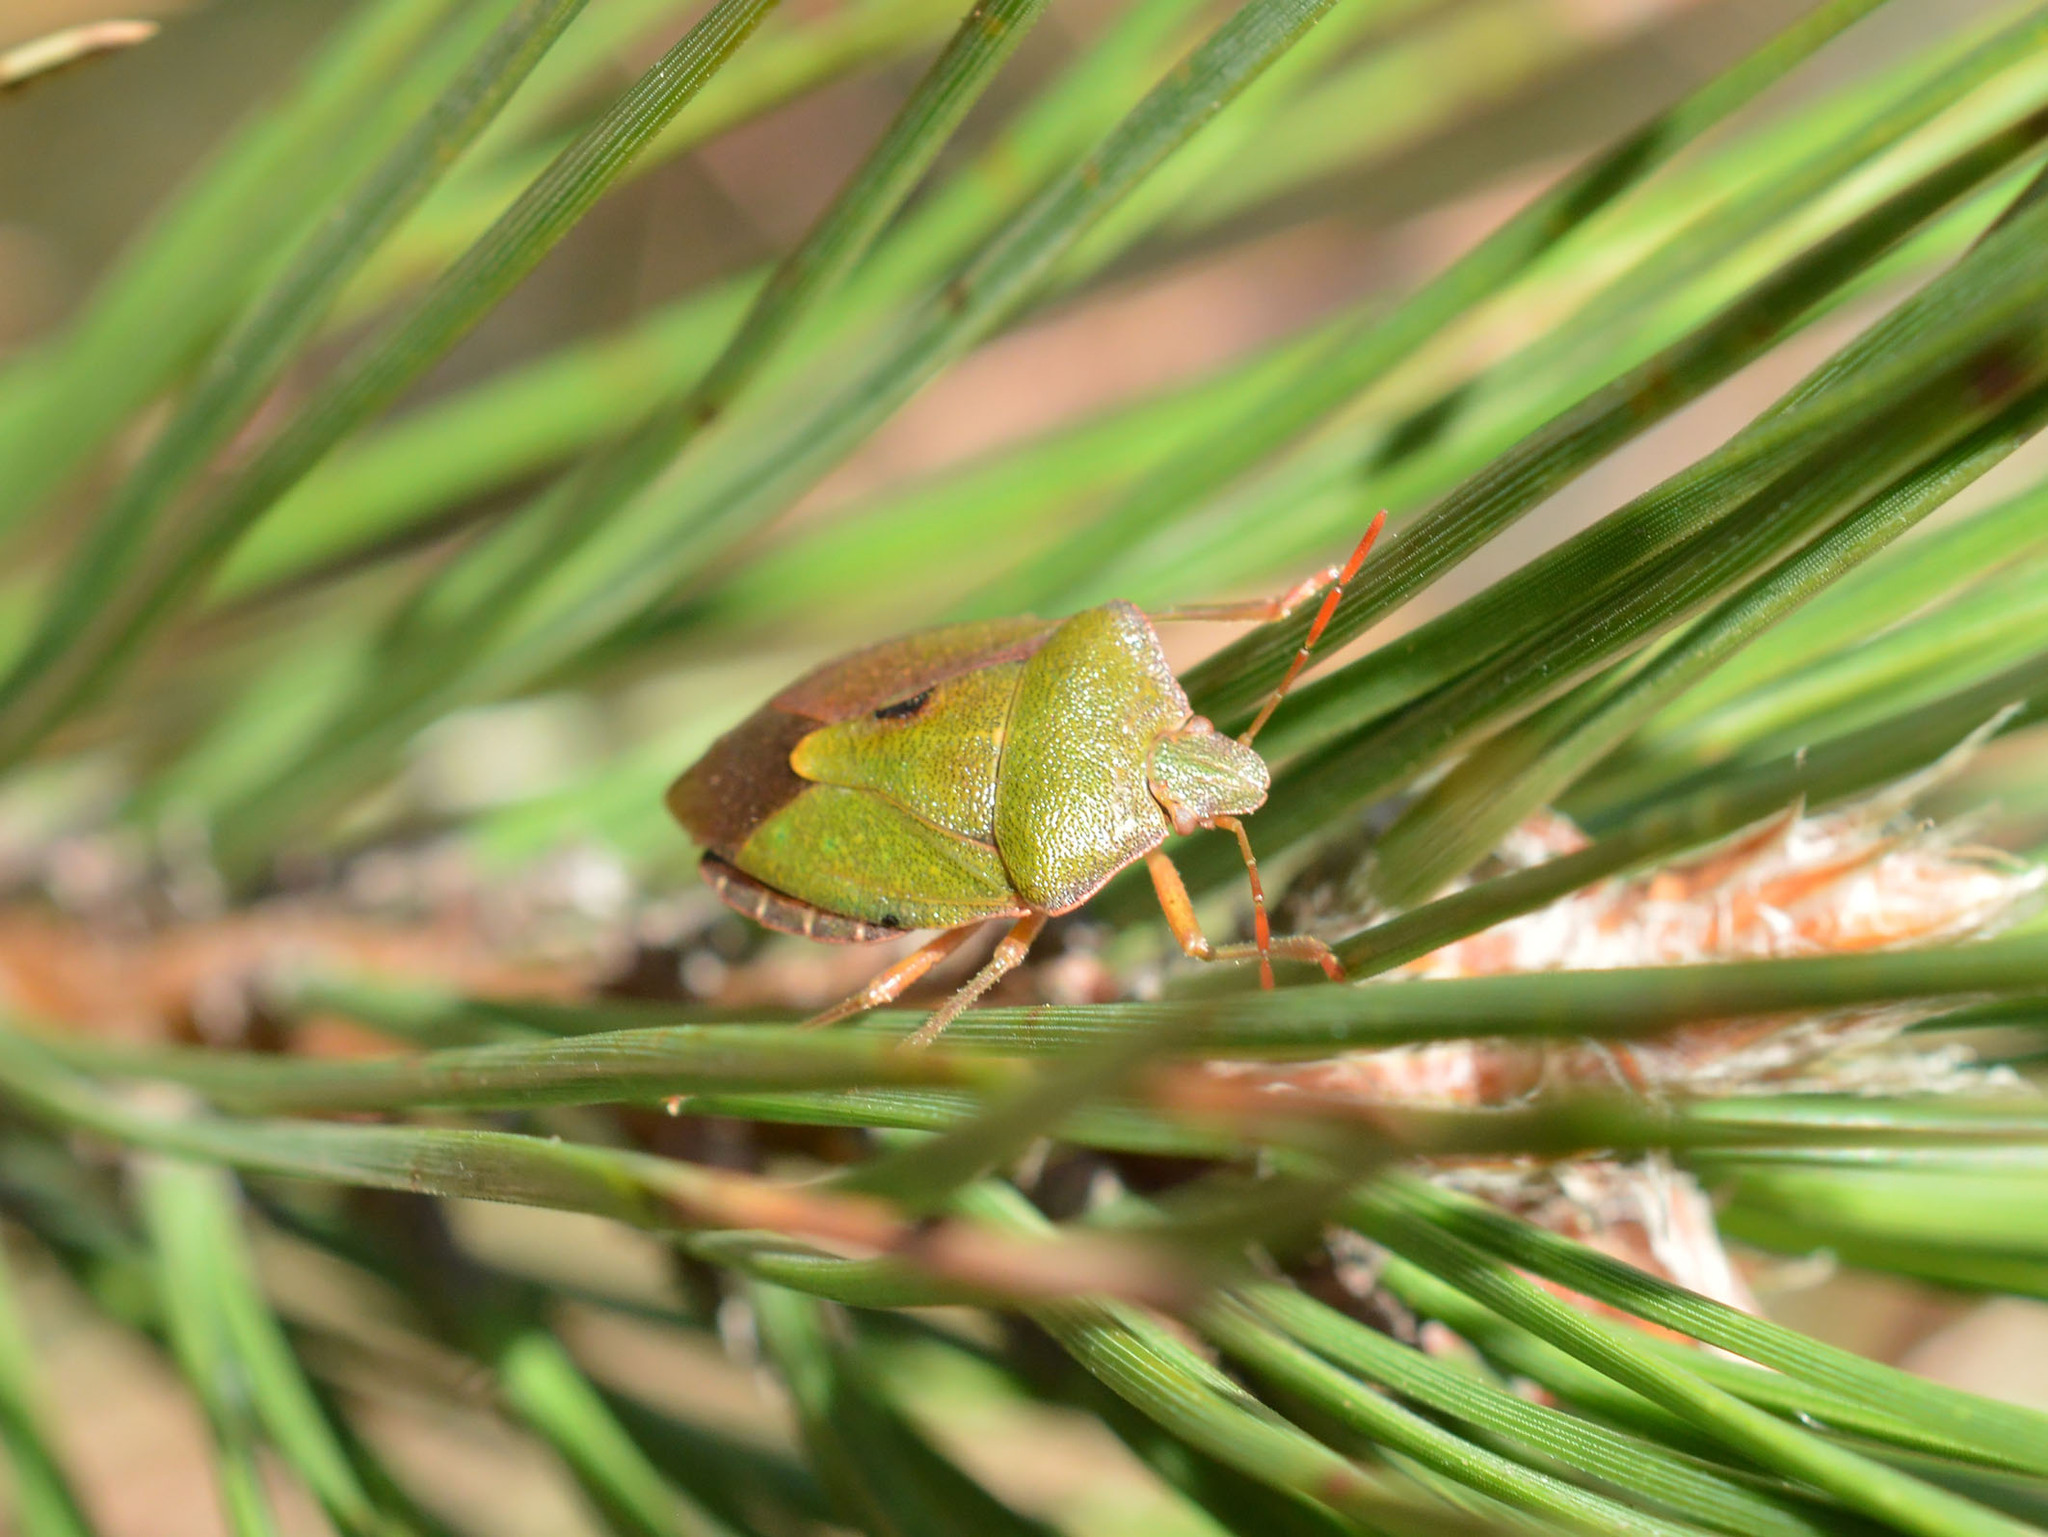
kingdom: Animalia
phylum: Arthropoda
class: Insecta
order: Hemiptera
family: Pentatomidae
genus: Palomena
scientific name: Palomena prasina
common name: Green shieldbug
